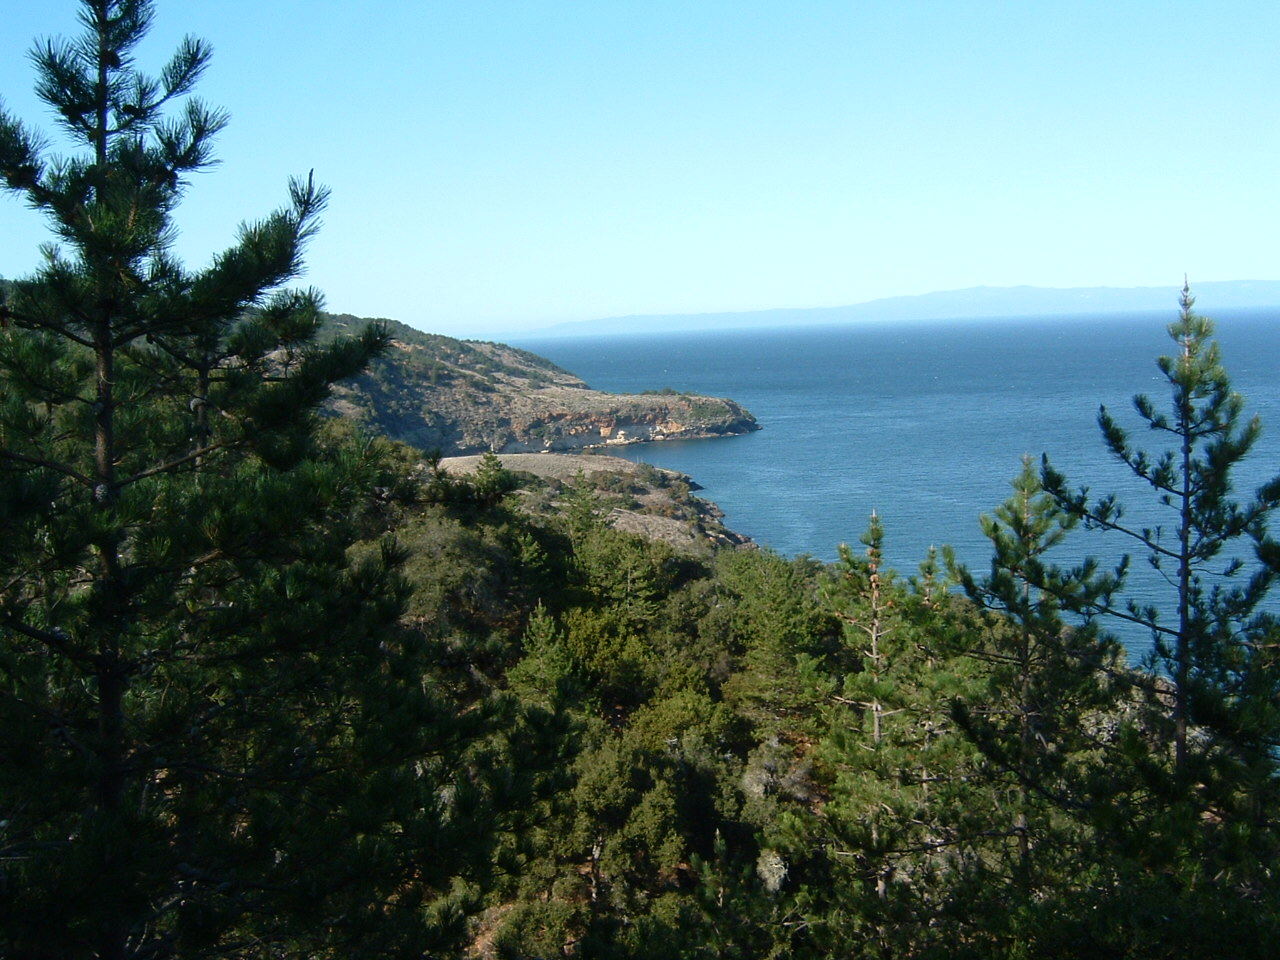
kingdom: Plantae
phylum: Tracheophyta
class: Pinopsida
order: Pinales
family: Pinaceae
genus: Pinus
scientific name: Pinus muricata
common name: Bishop pine
